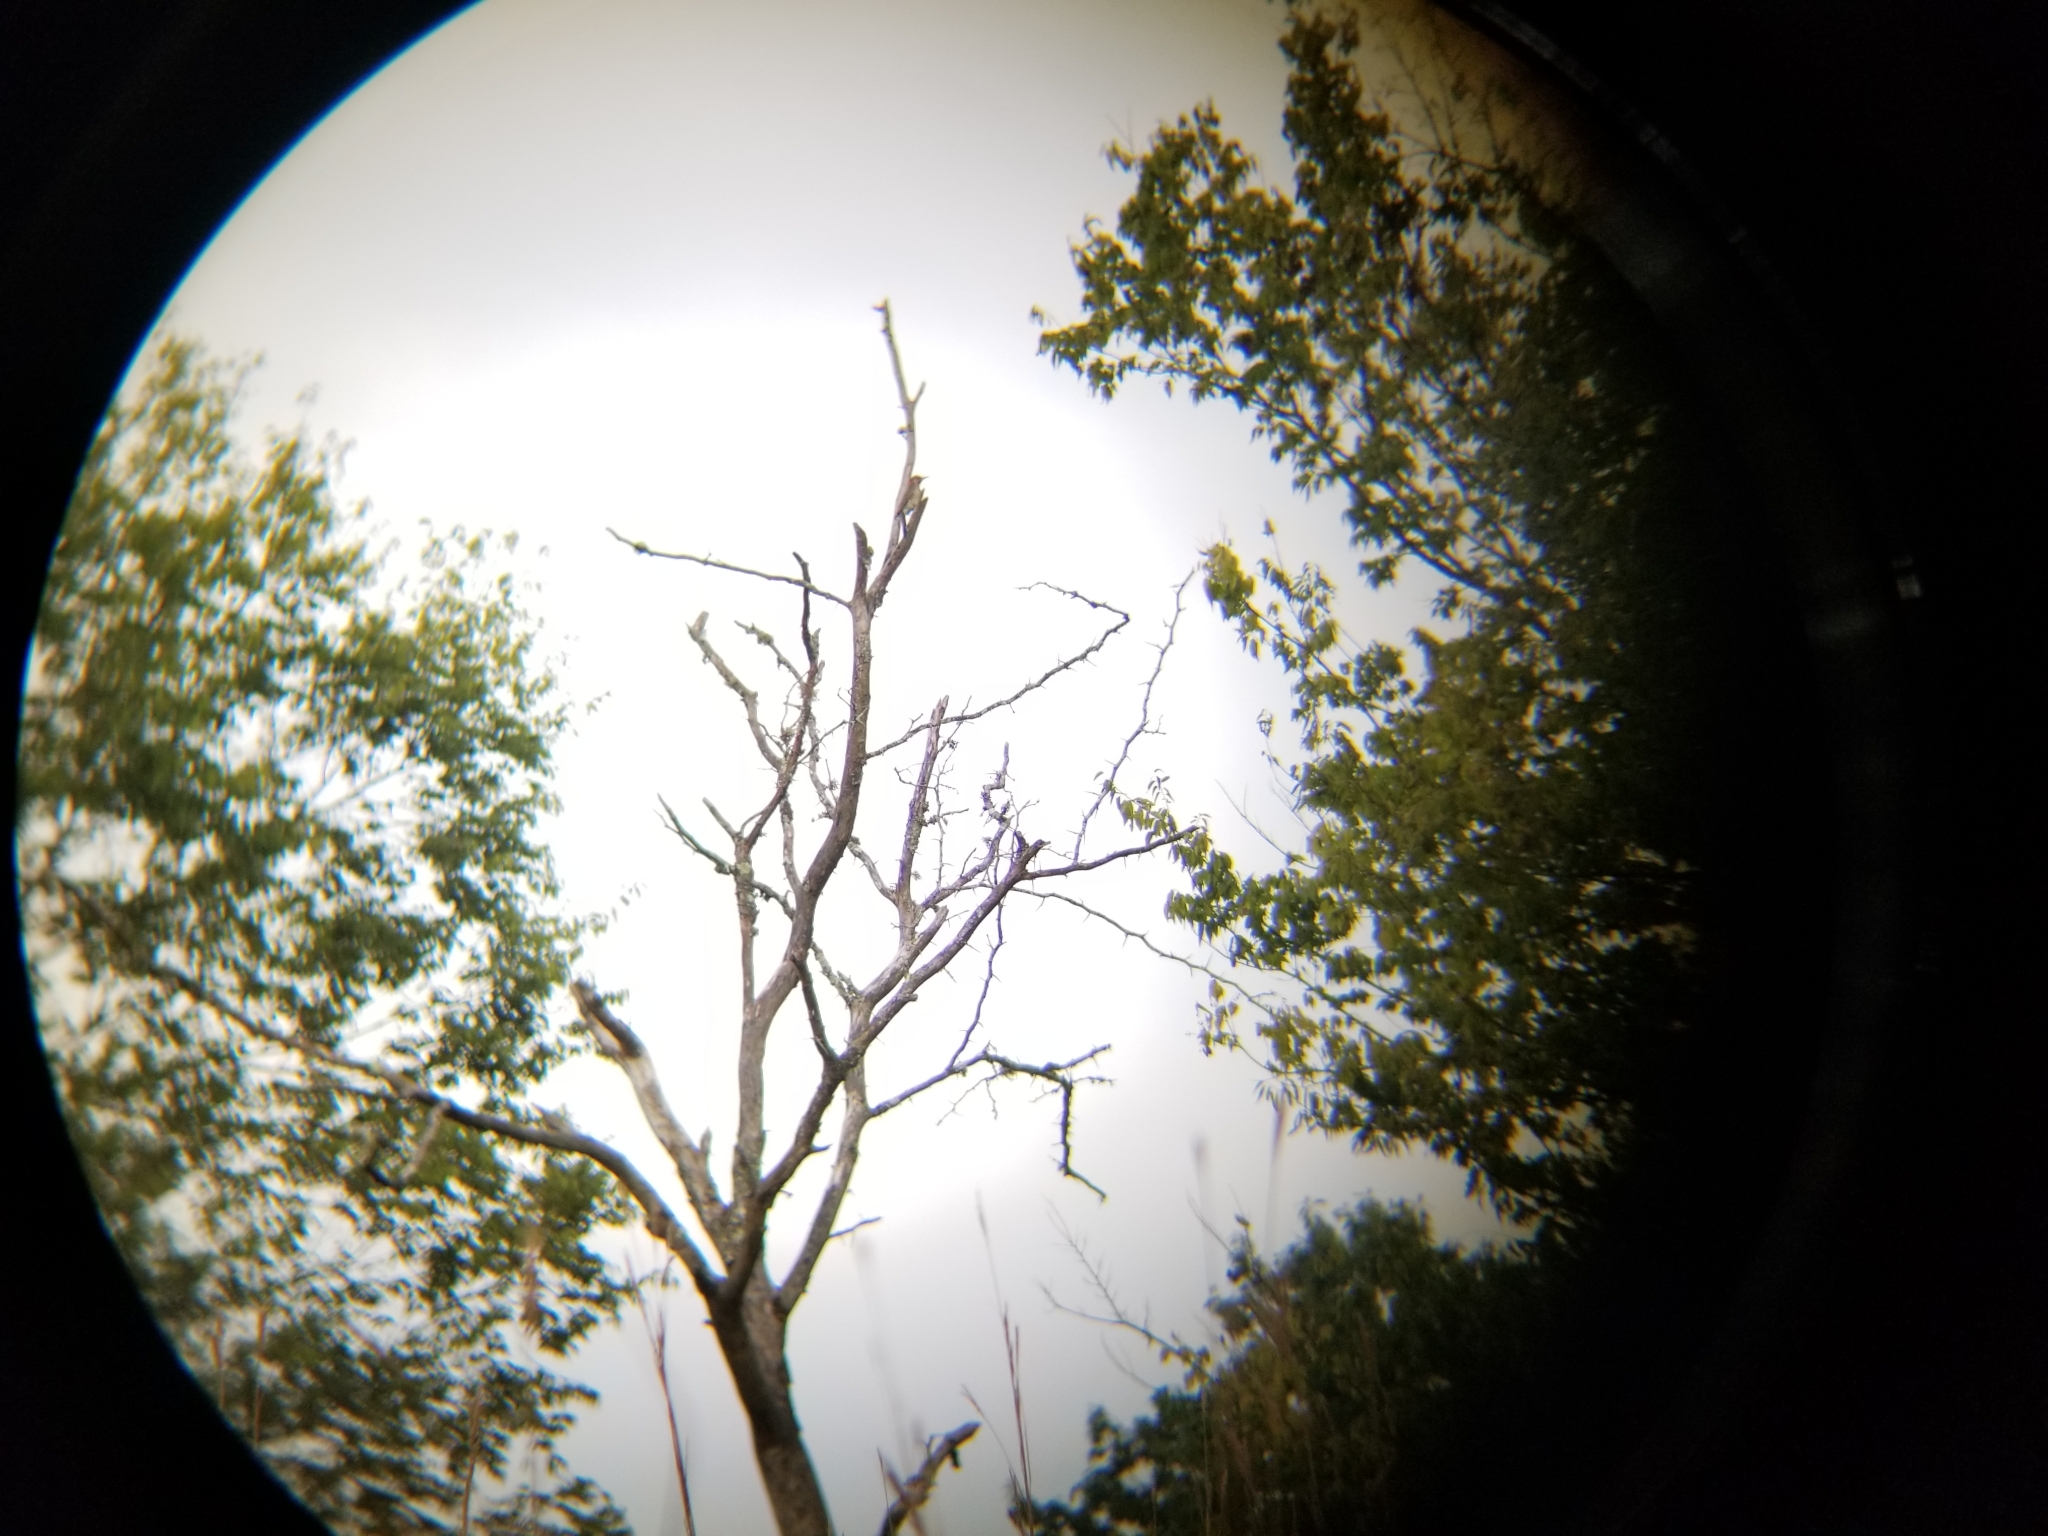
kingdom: Animalia
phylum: Chordata
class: Aves
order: Piciformes
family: Picidae
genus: Colaptes
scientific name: Colaptes auratus
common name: Northern flicker
